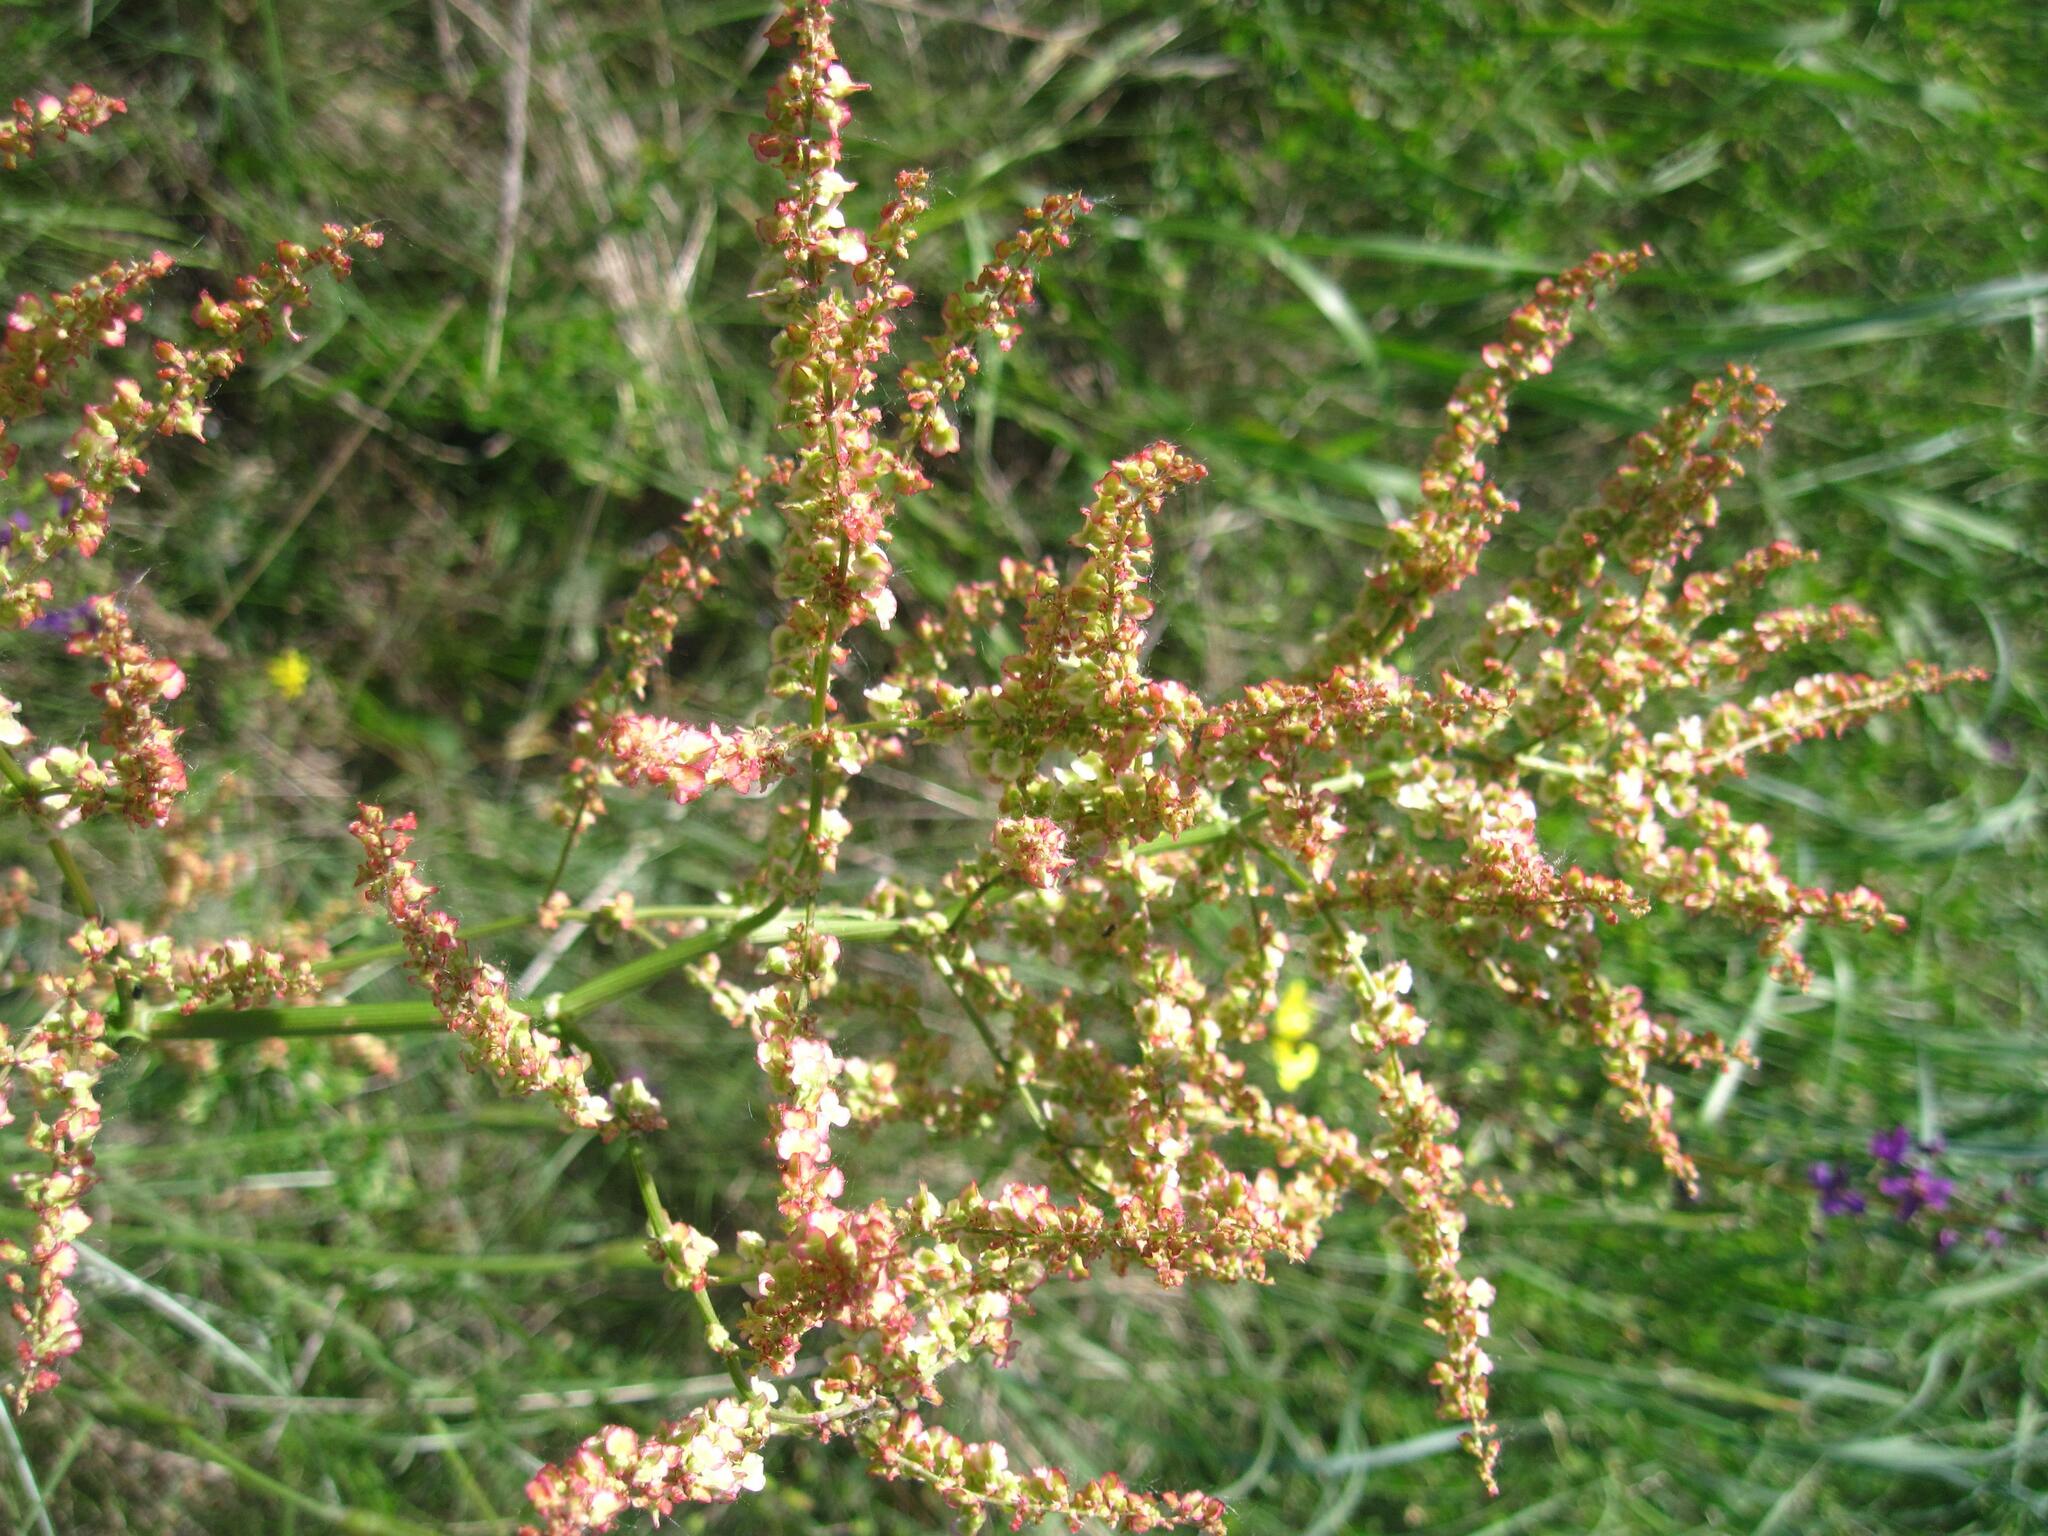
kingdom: Plantae
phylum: Tracheophyta
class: Magnoliopsida
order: Caryophyllales
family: Polygonaceae
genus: Rumex
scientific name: Rumex tuberosus
